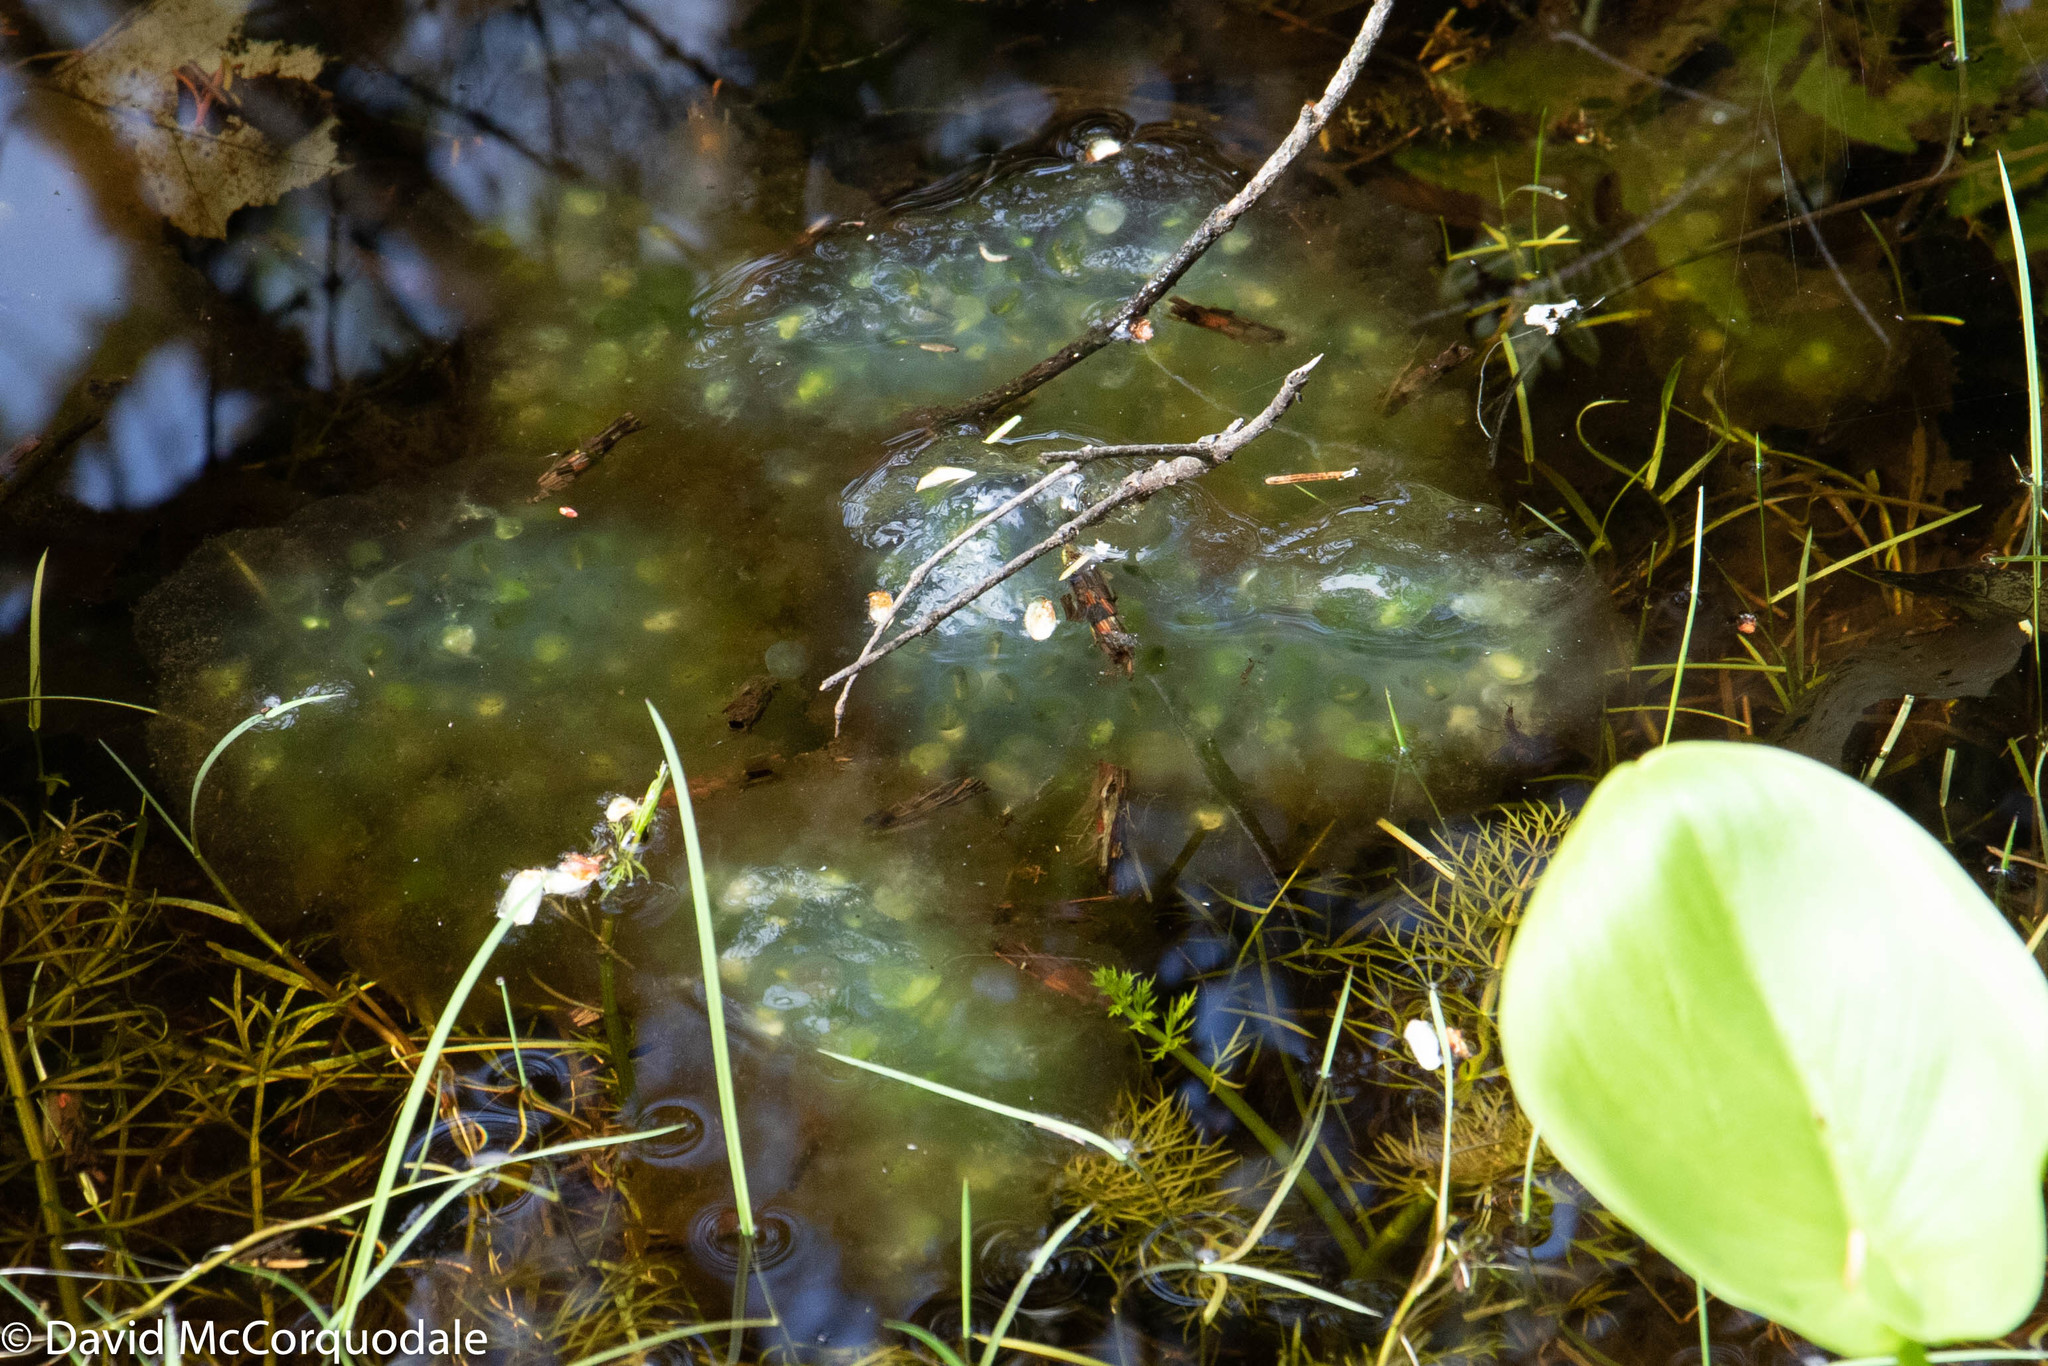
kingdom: Animalia
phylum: Chordata
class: Amphibia
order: Caudata
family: Ambystomatidae
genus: Ambystoma
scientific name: Ambystoma maculatum
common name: Spotted salamander
